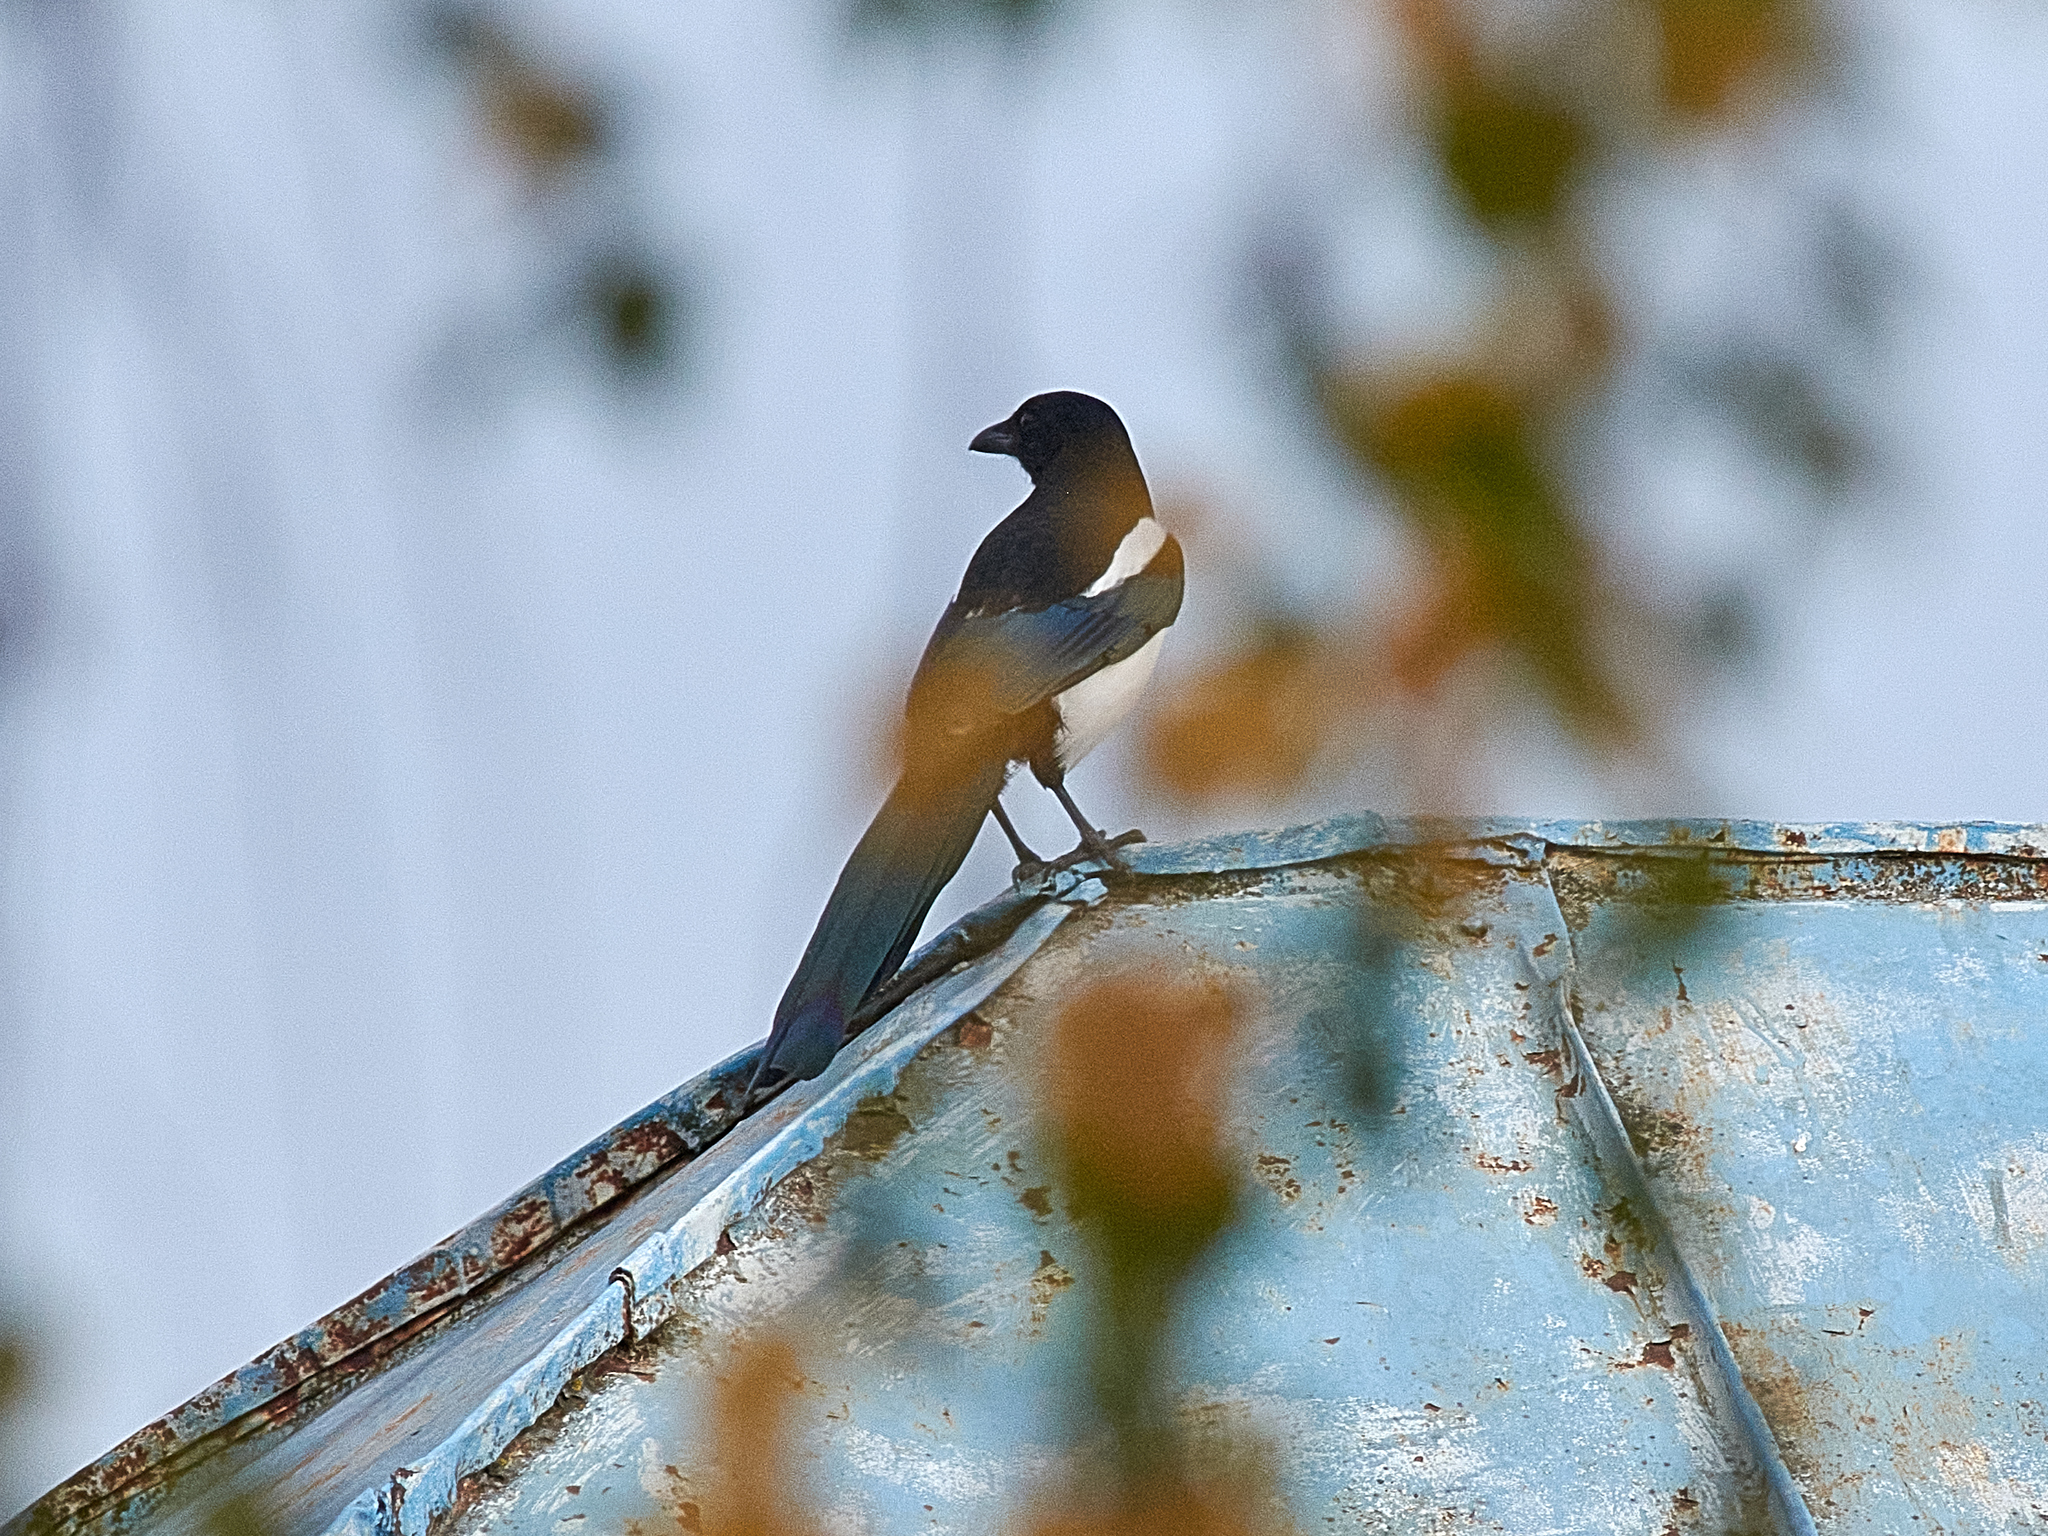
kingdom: Animalia
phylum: Chordata
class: Aves
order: Passeriformes
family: Corvidae
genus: Pica
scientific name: Pica pica
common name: Eurasian magpie
